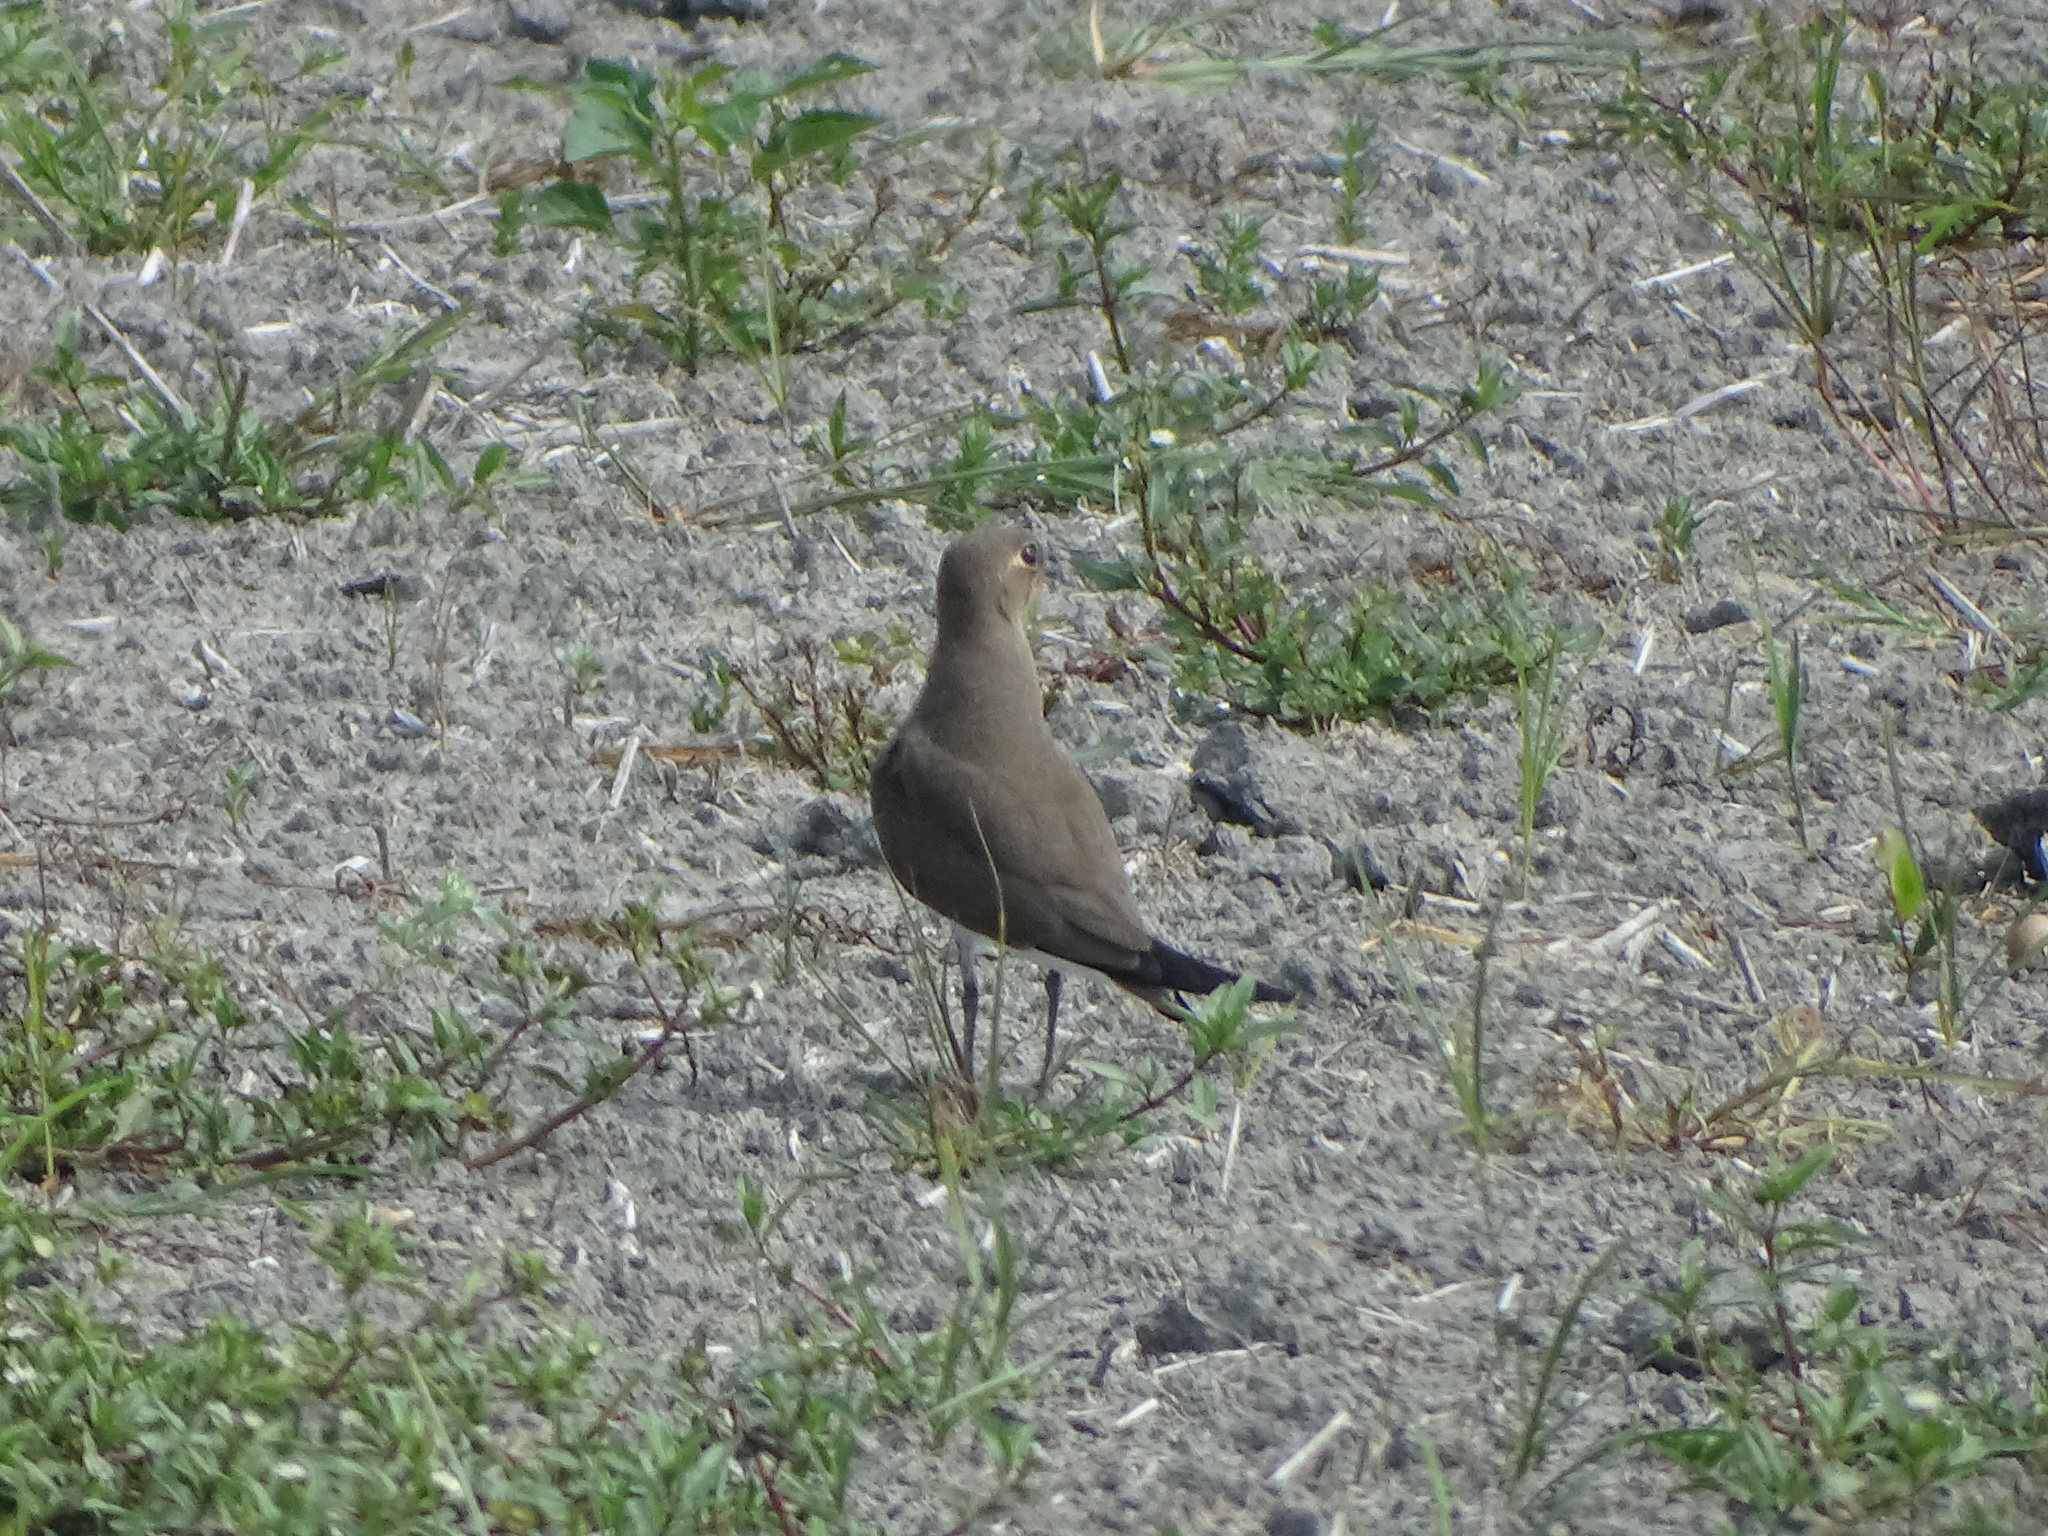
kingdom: Animalia
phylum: Chordata
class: Aves
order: Charadriiformes
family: Glareolidae
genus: Glareola
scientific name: Glareola maldivarum
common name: Oriental pratincole
